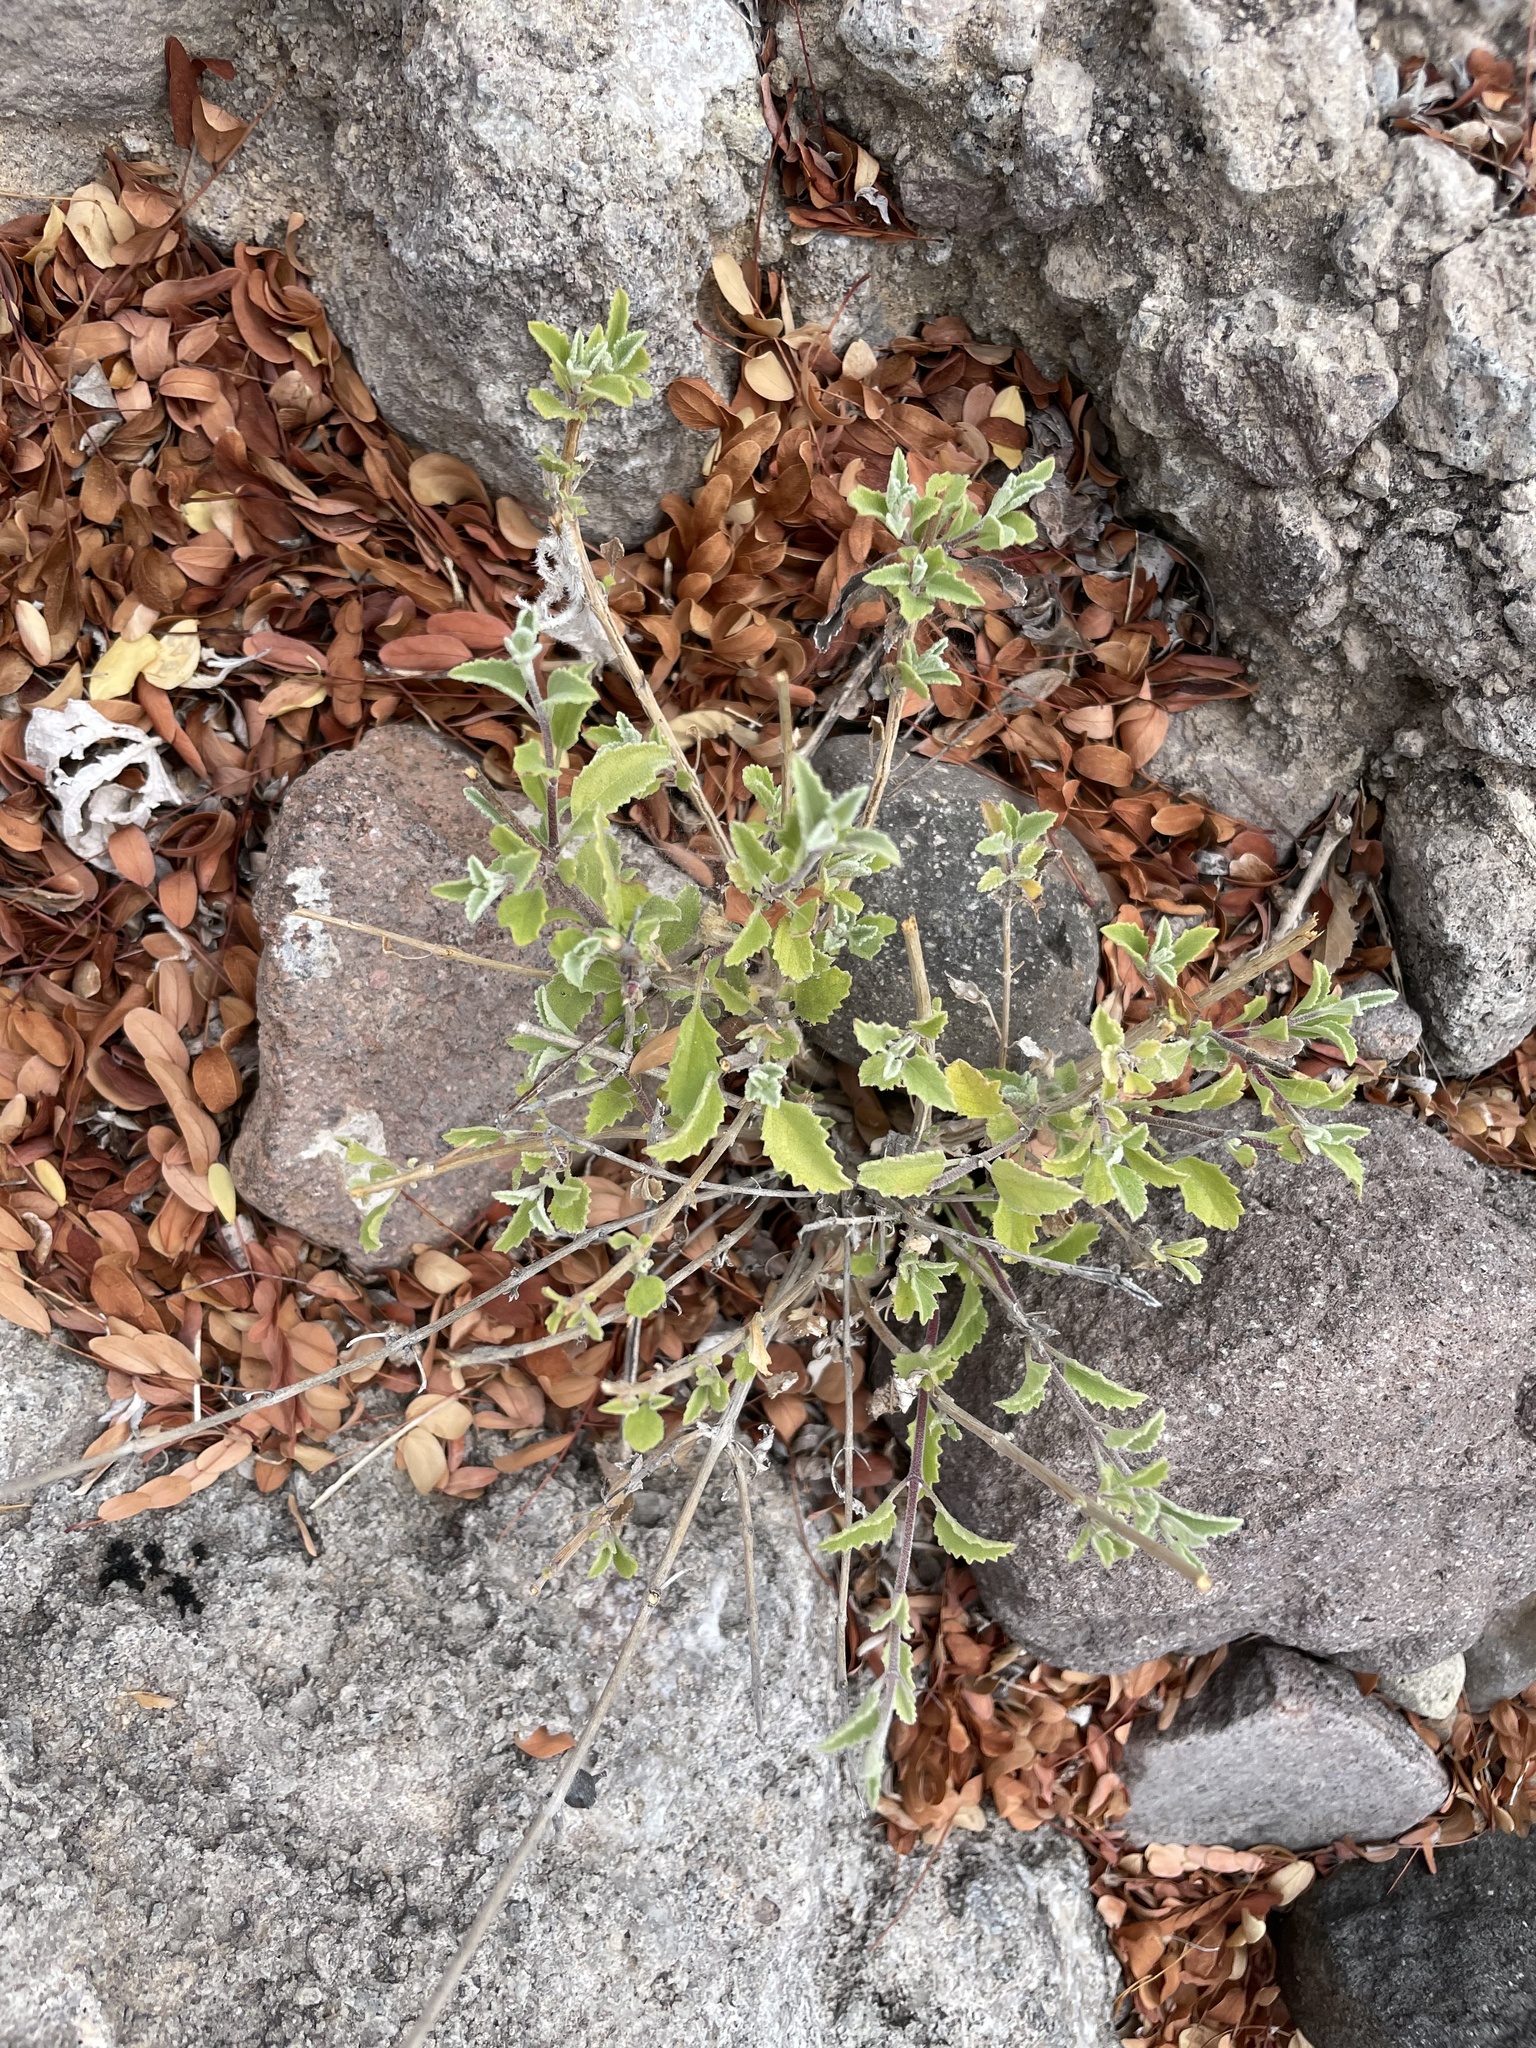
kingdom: Plantae
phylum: Tracheophyta
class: Magnoliopsida
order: Lamiales
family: Lamiaceae
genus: Origanum
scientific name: Origanum vulgare
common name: Wild marjoram
